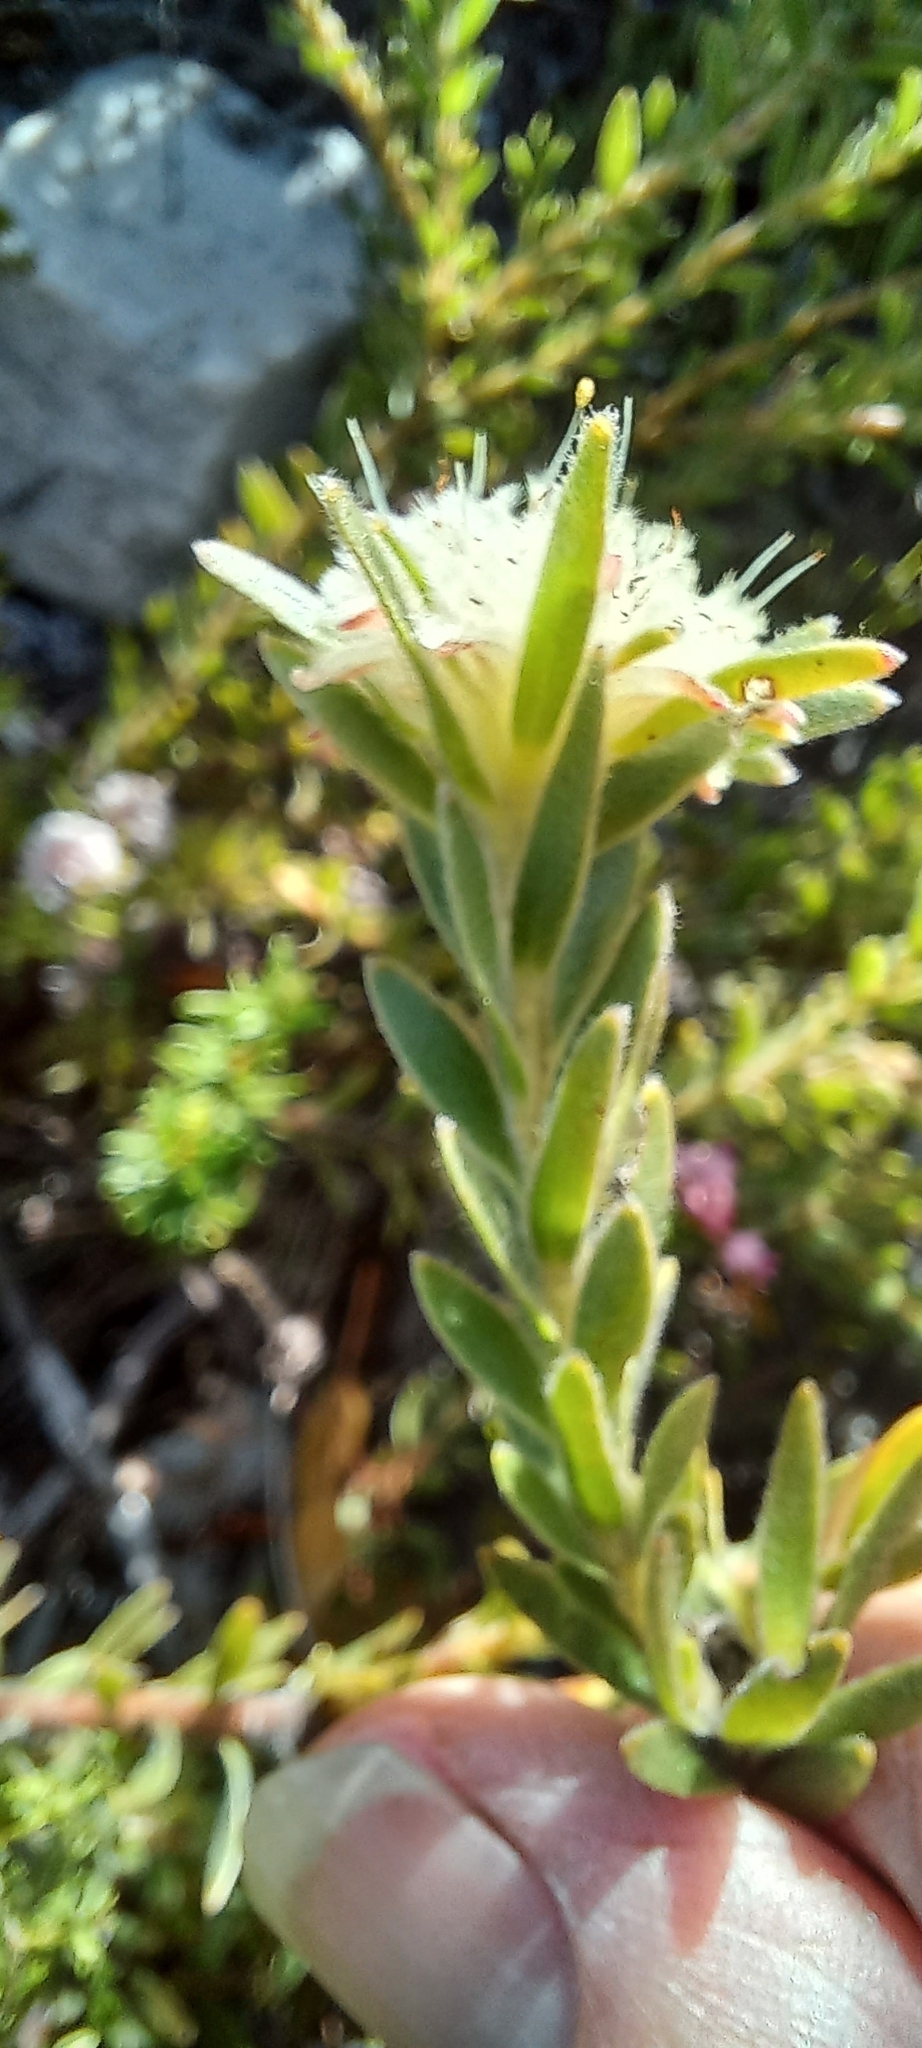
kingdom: Plantae
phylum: Tracheophyta
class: Magnoliopsida
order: Proteales
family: Proteaceae
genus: Diastella
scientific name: Diastella fraterna
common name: Palmiet silkypuff
